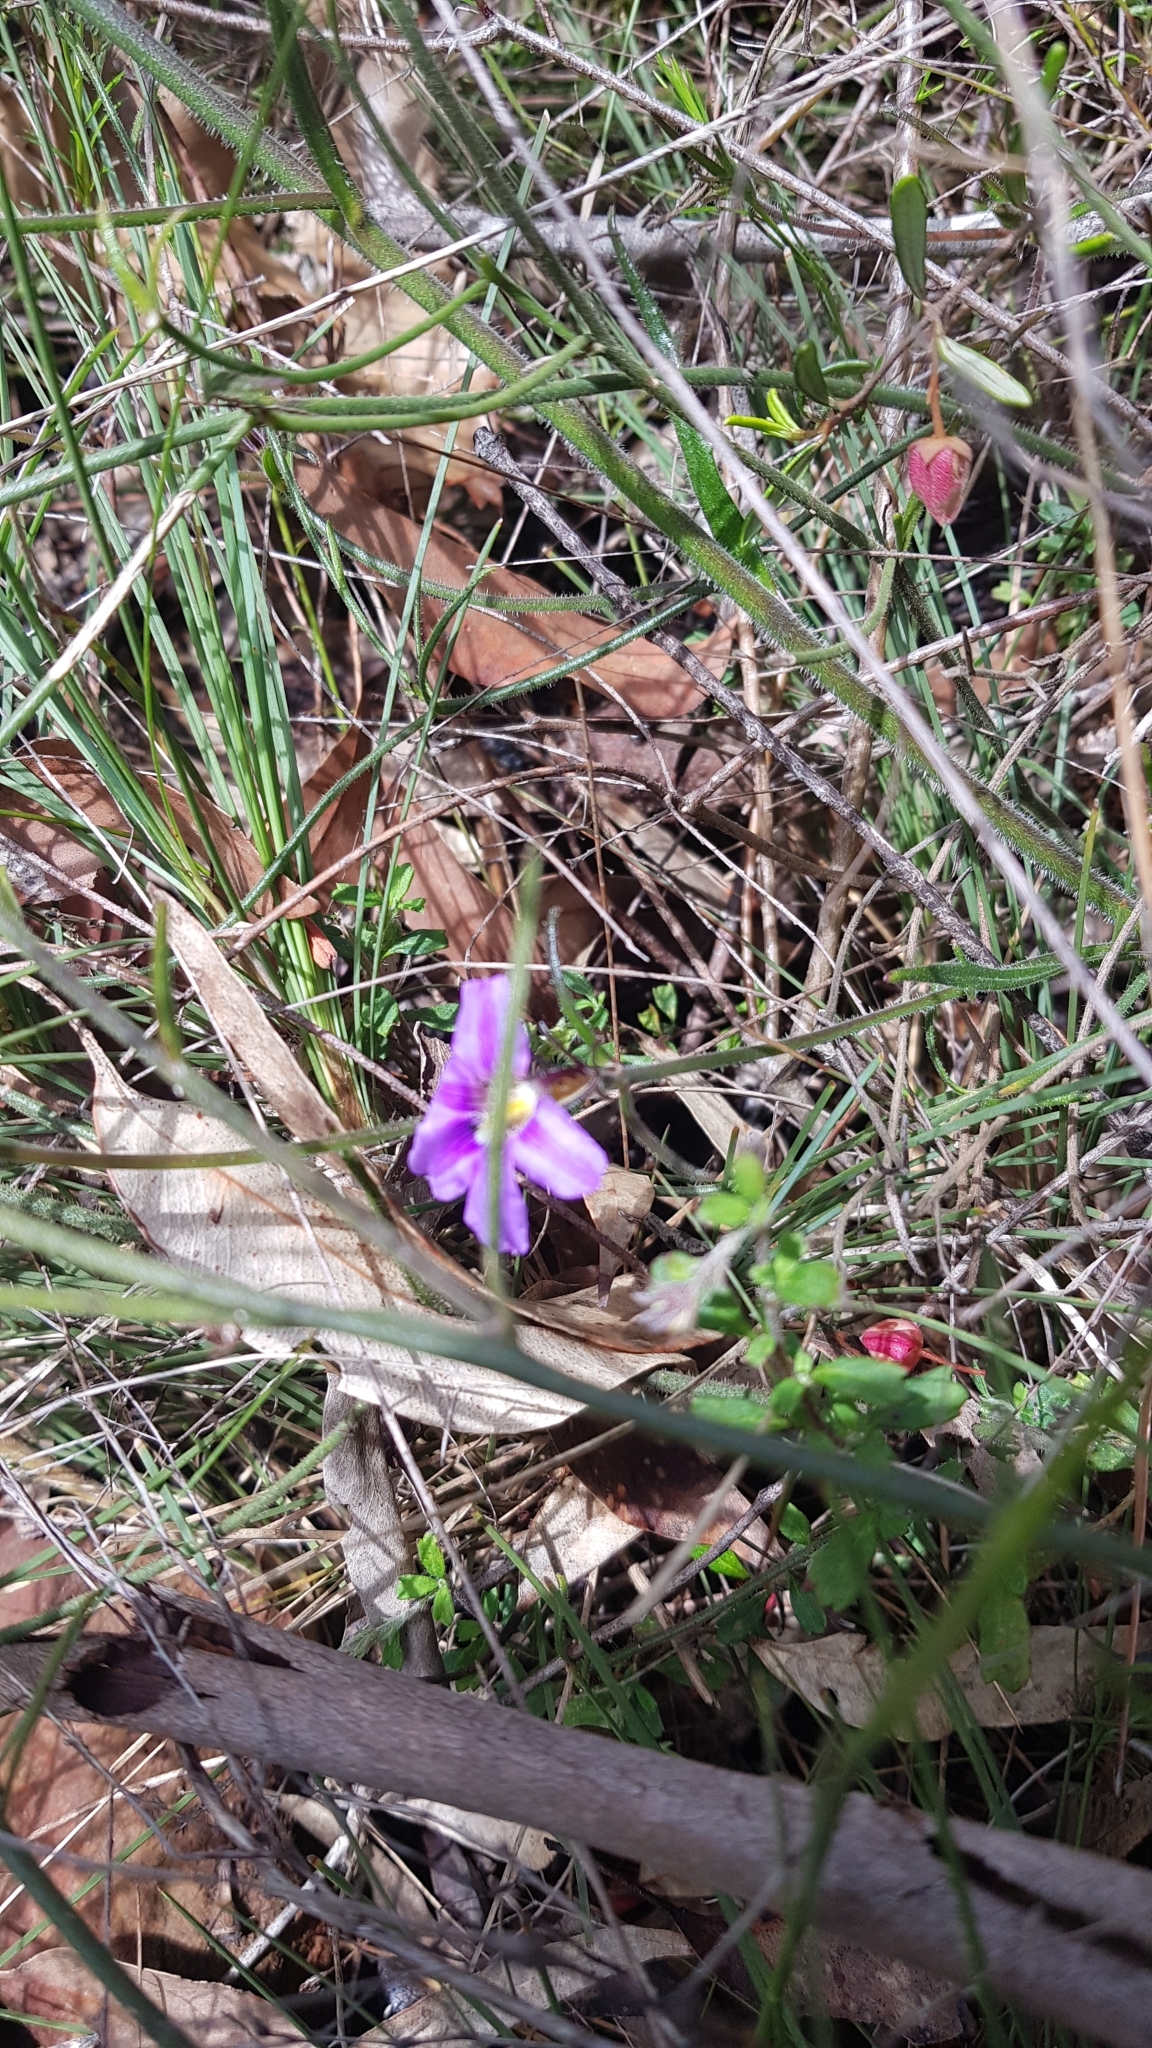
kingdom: Plantae
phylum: Tracheophyta
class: Magnoliopsida
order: Asterales
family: Goodeniaceae
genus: Scaevola
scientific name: Scaevola ramosissima
